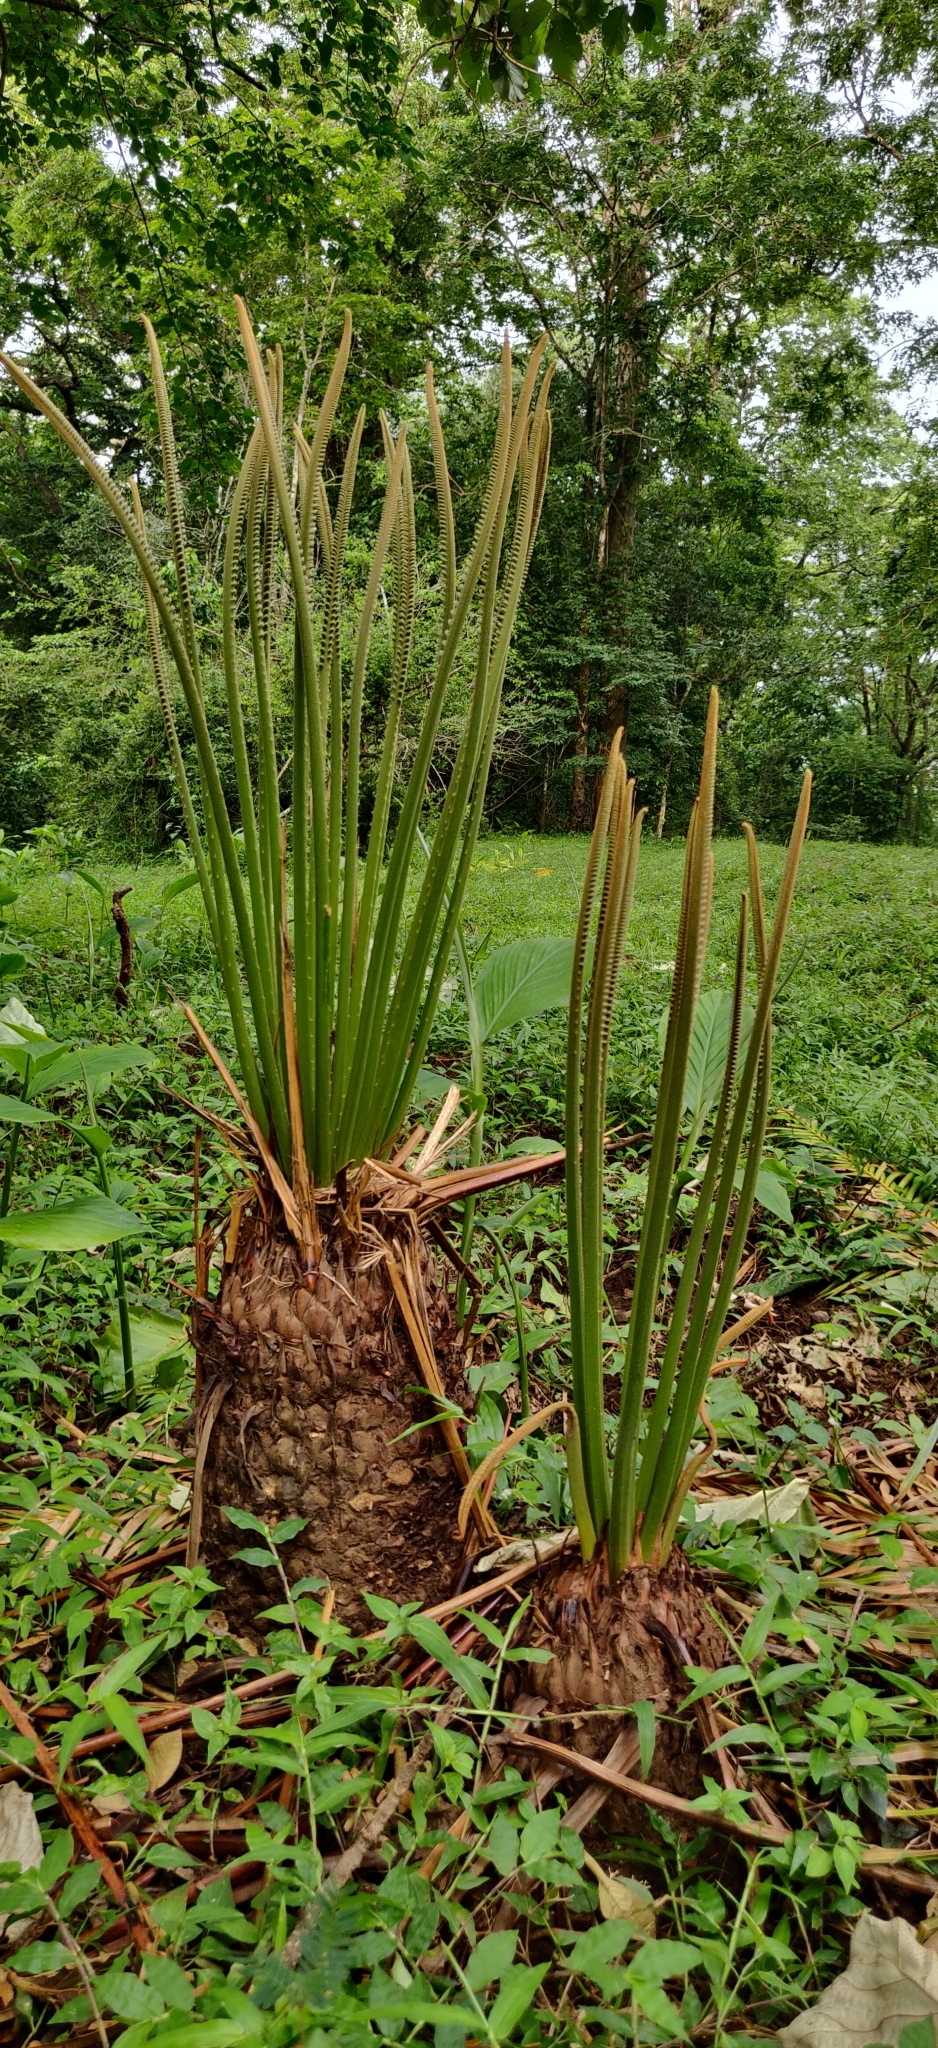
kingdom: Plantae
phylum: Tracheophyta
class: Cycadopsida
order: Cycadales
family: Cycadaceae
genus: Cycas
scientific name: Cycas circinalis
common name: Queen sago
